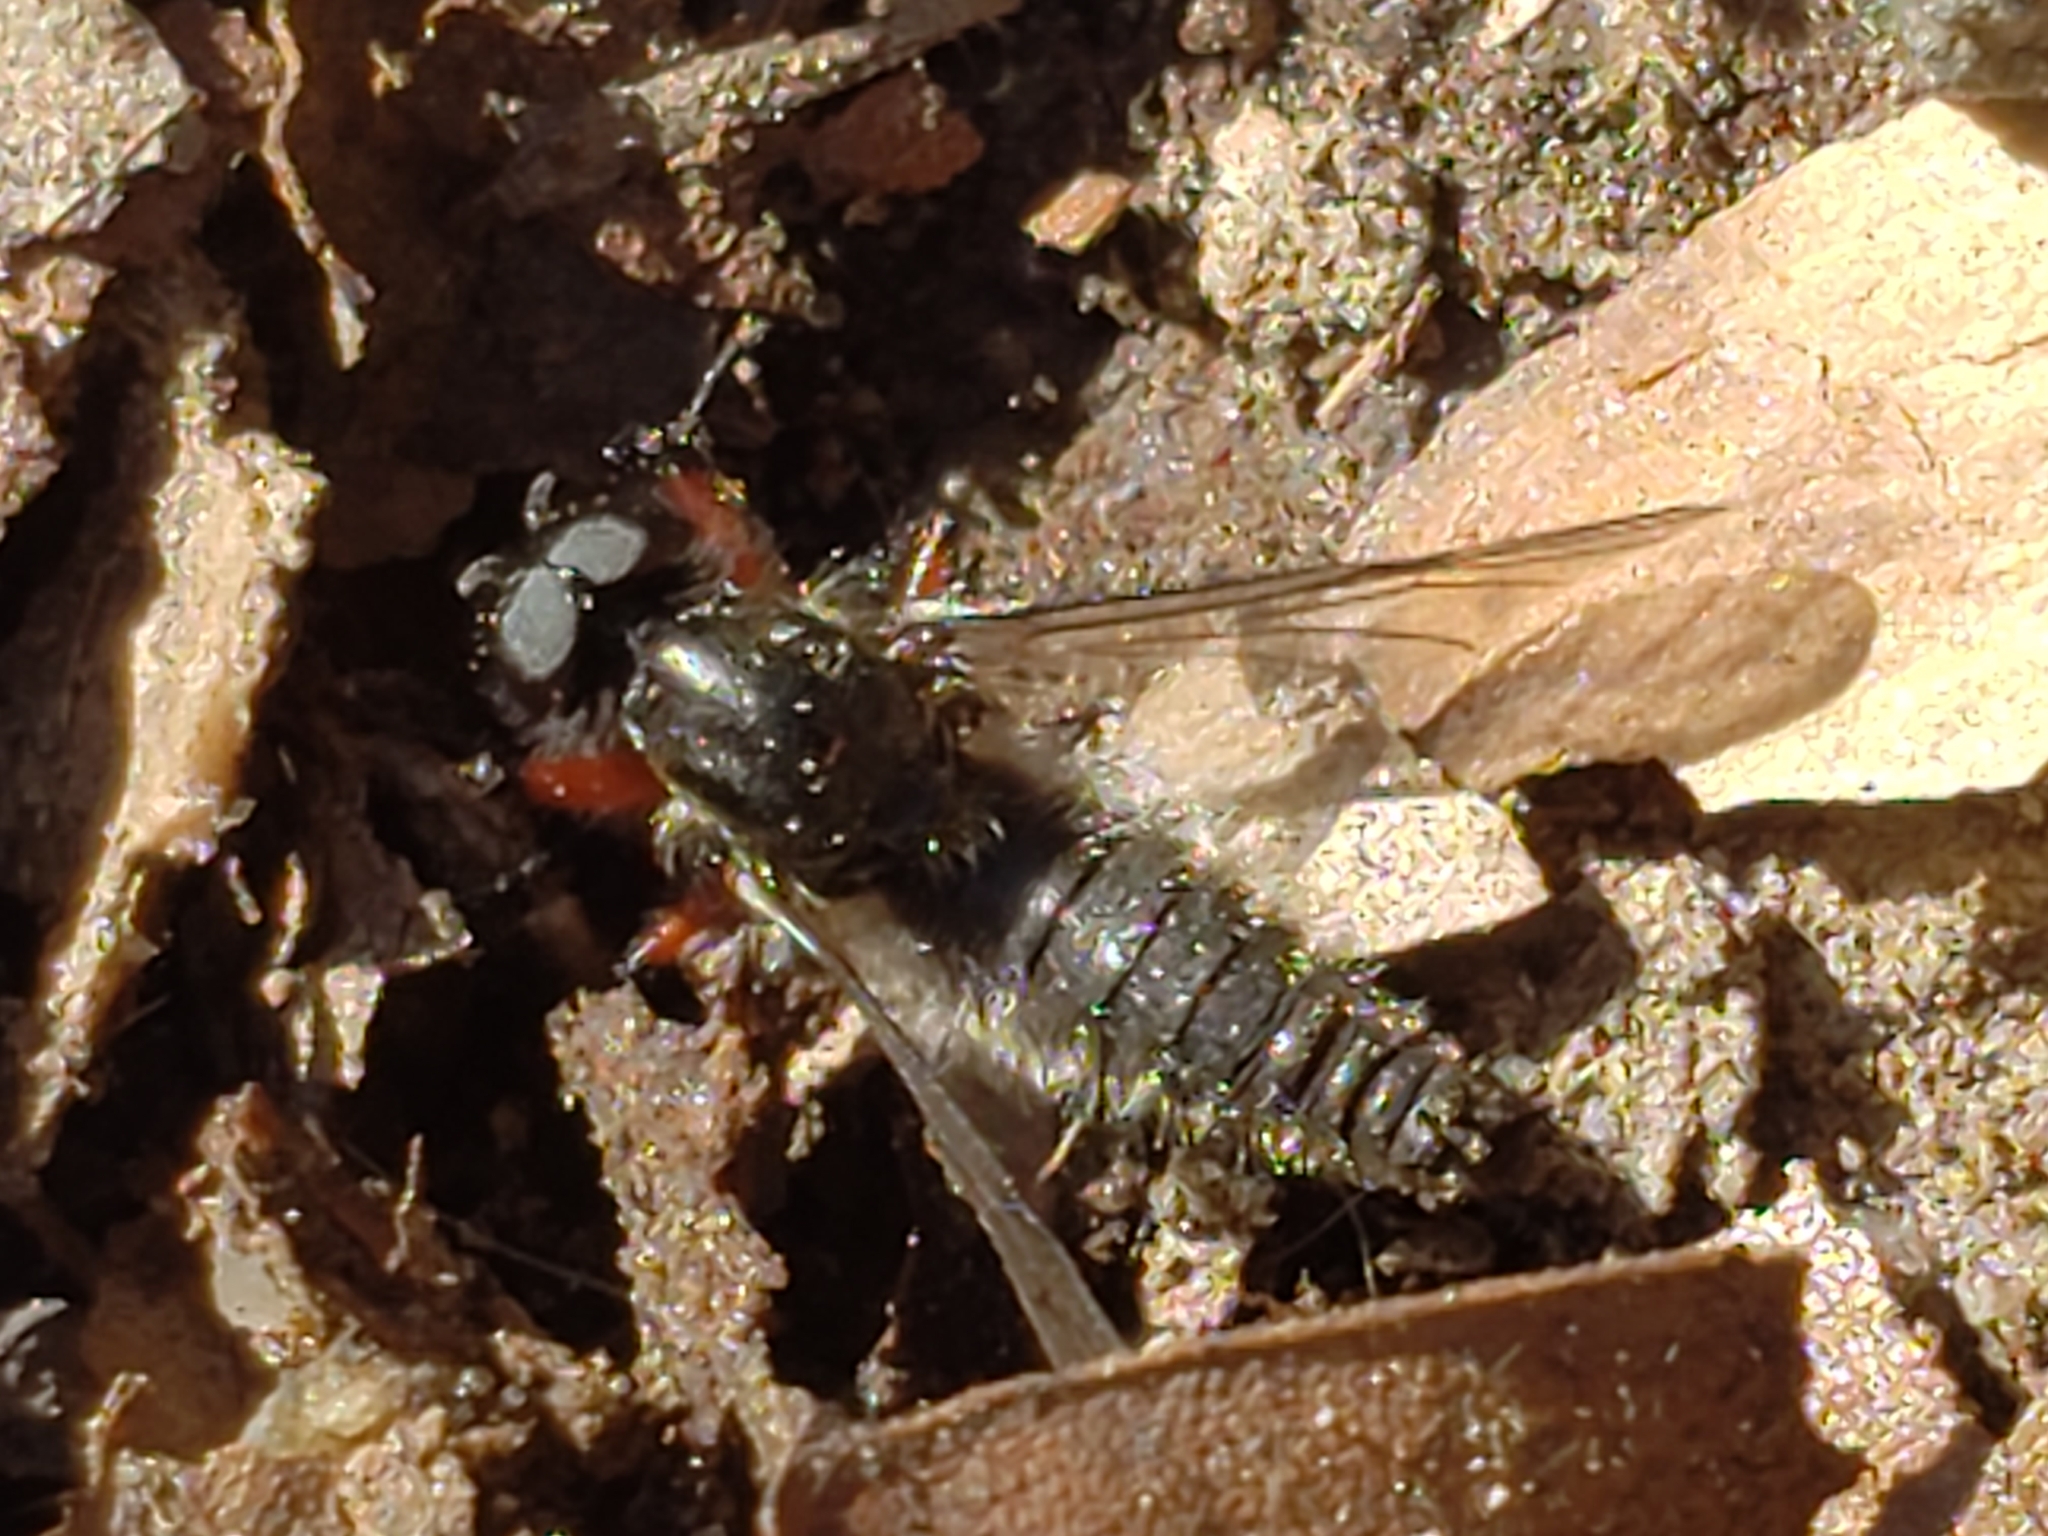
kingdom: Animalia
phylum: Arthropoda
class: Insecta
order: Diptera
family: Bibionidae
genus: Bibio
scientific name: Bibio femoratus
